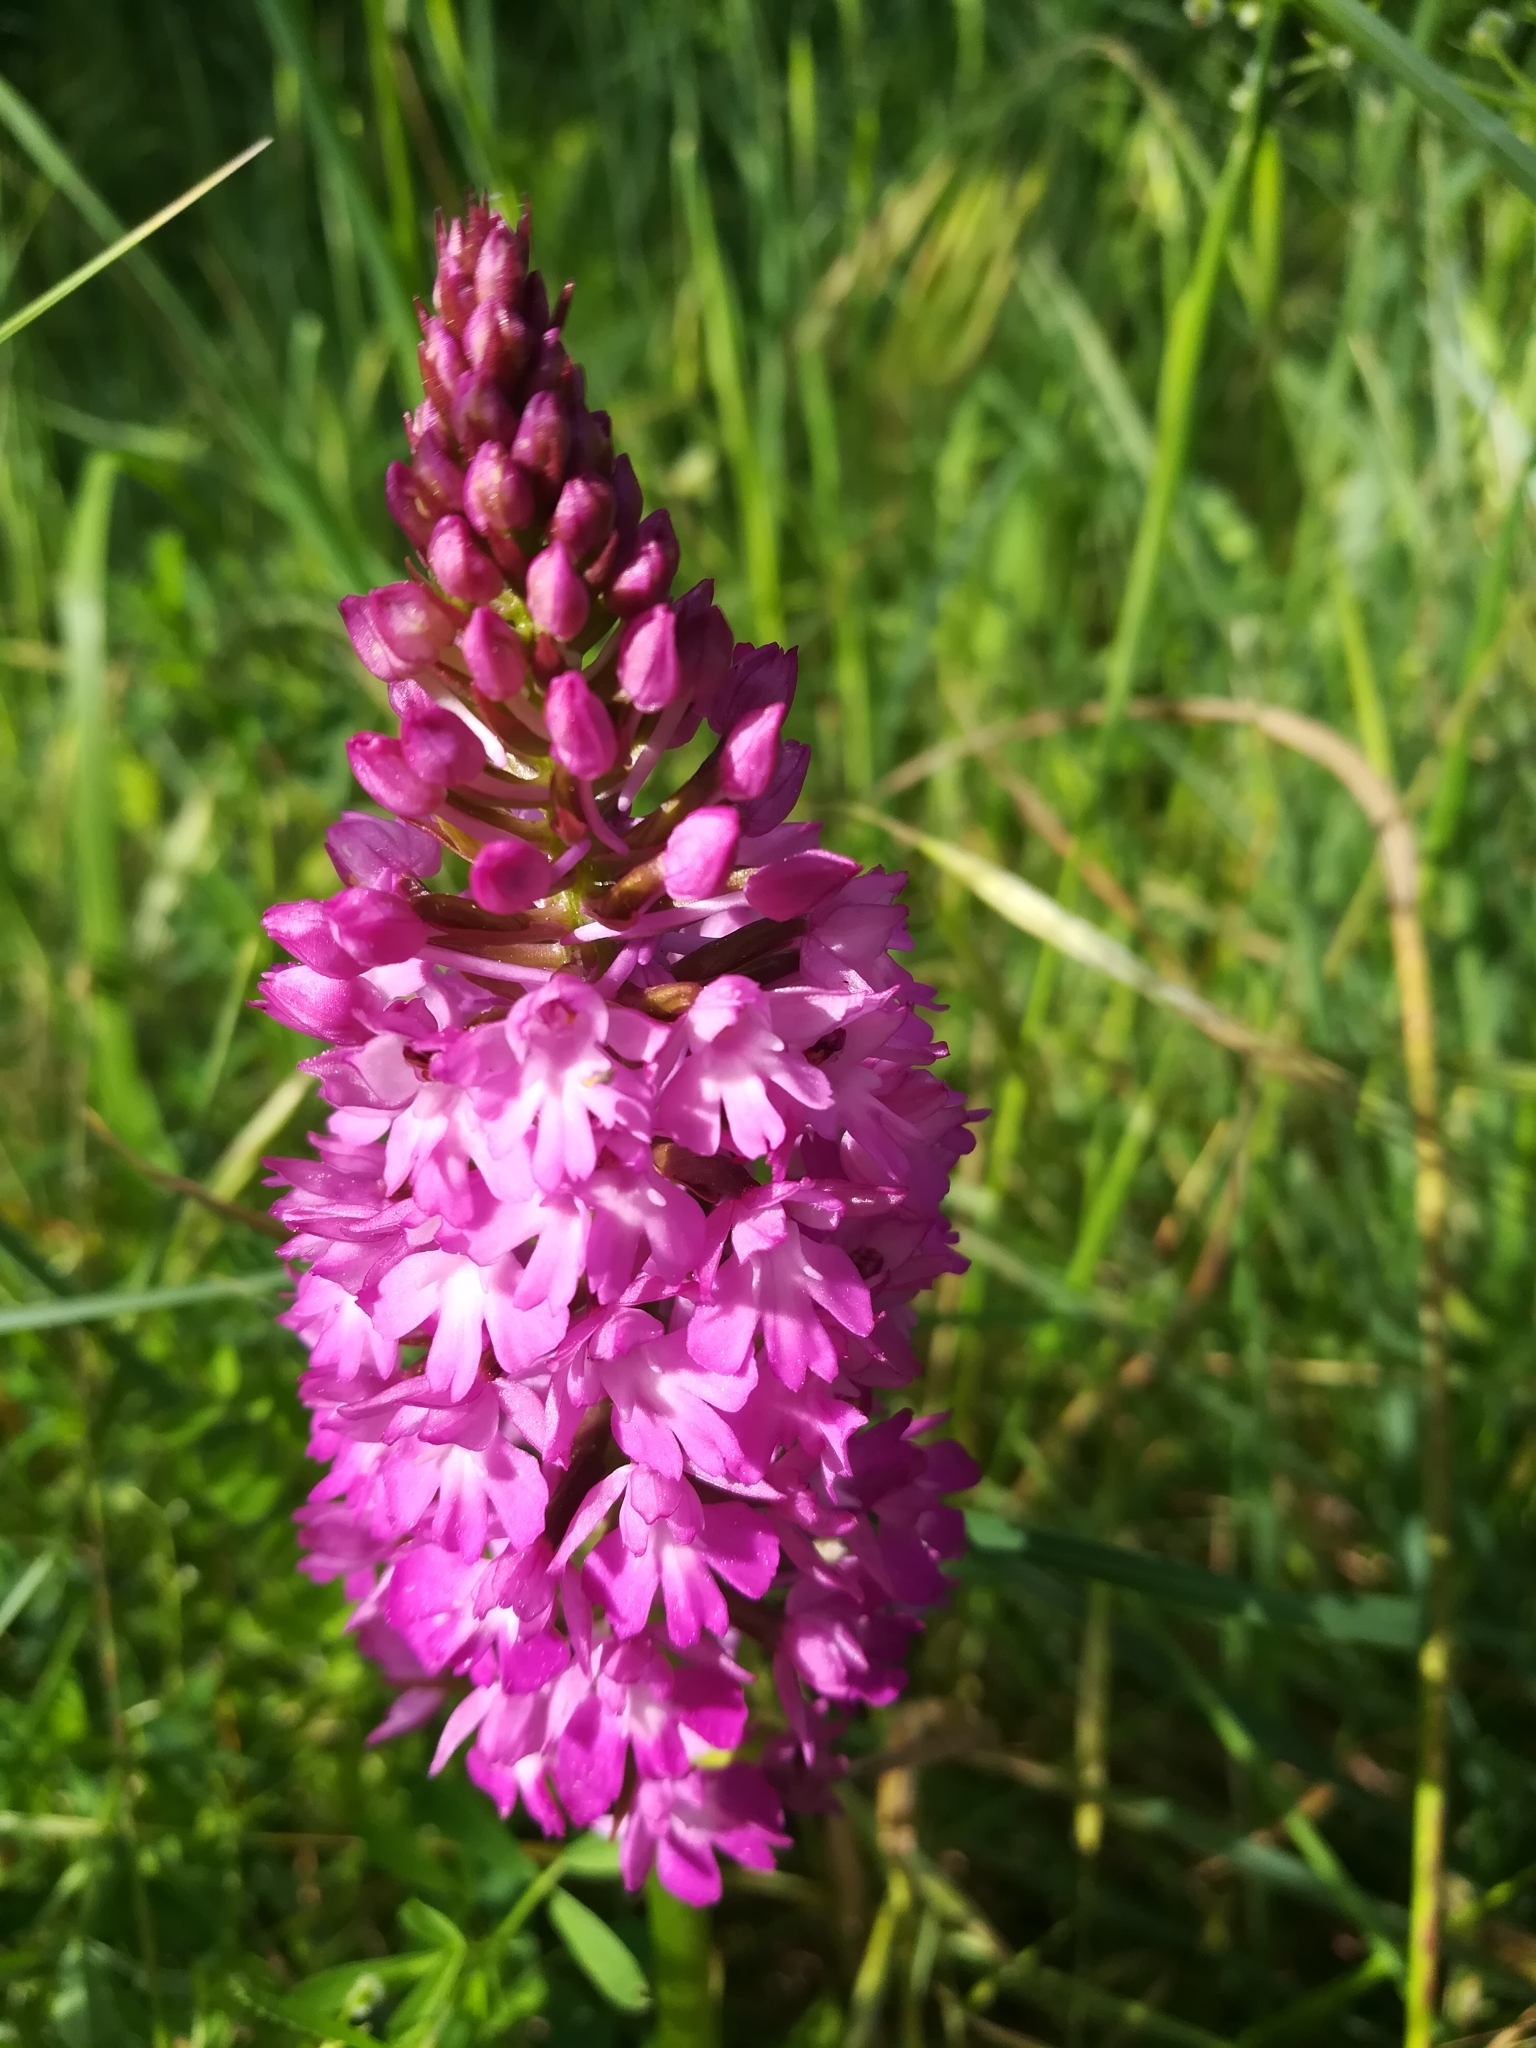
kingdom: Plantae
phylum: Tracheophyta
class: Liliopsida
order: Asparagales
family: Orchidaceae
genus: Anacamptis
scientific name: Anacamptis pyramidalis
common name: Pyramidal orchid
